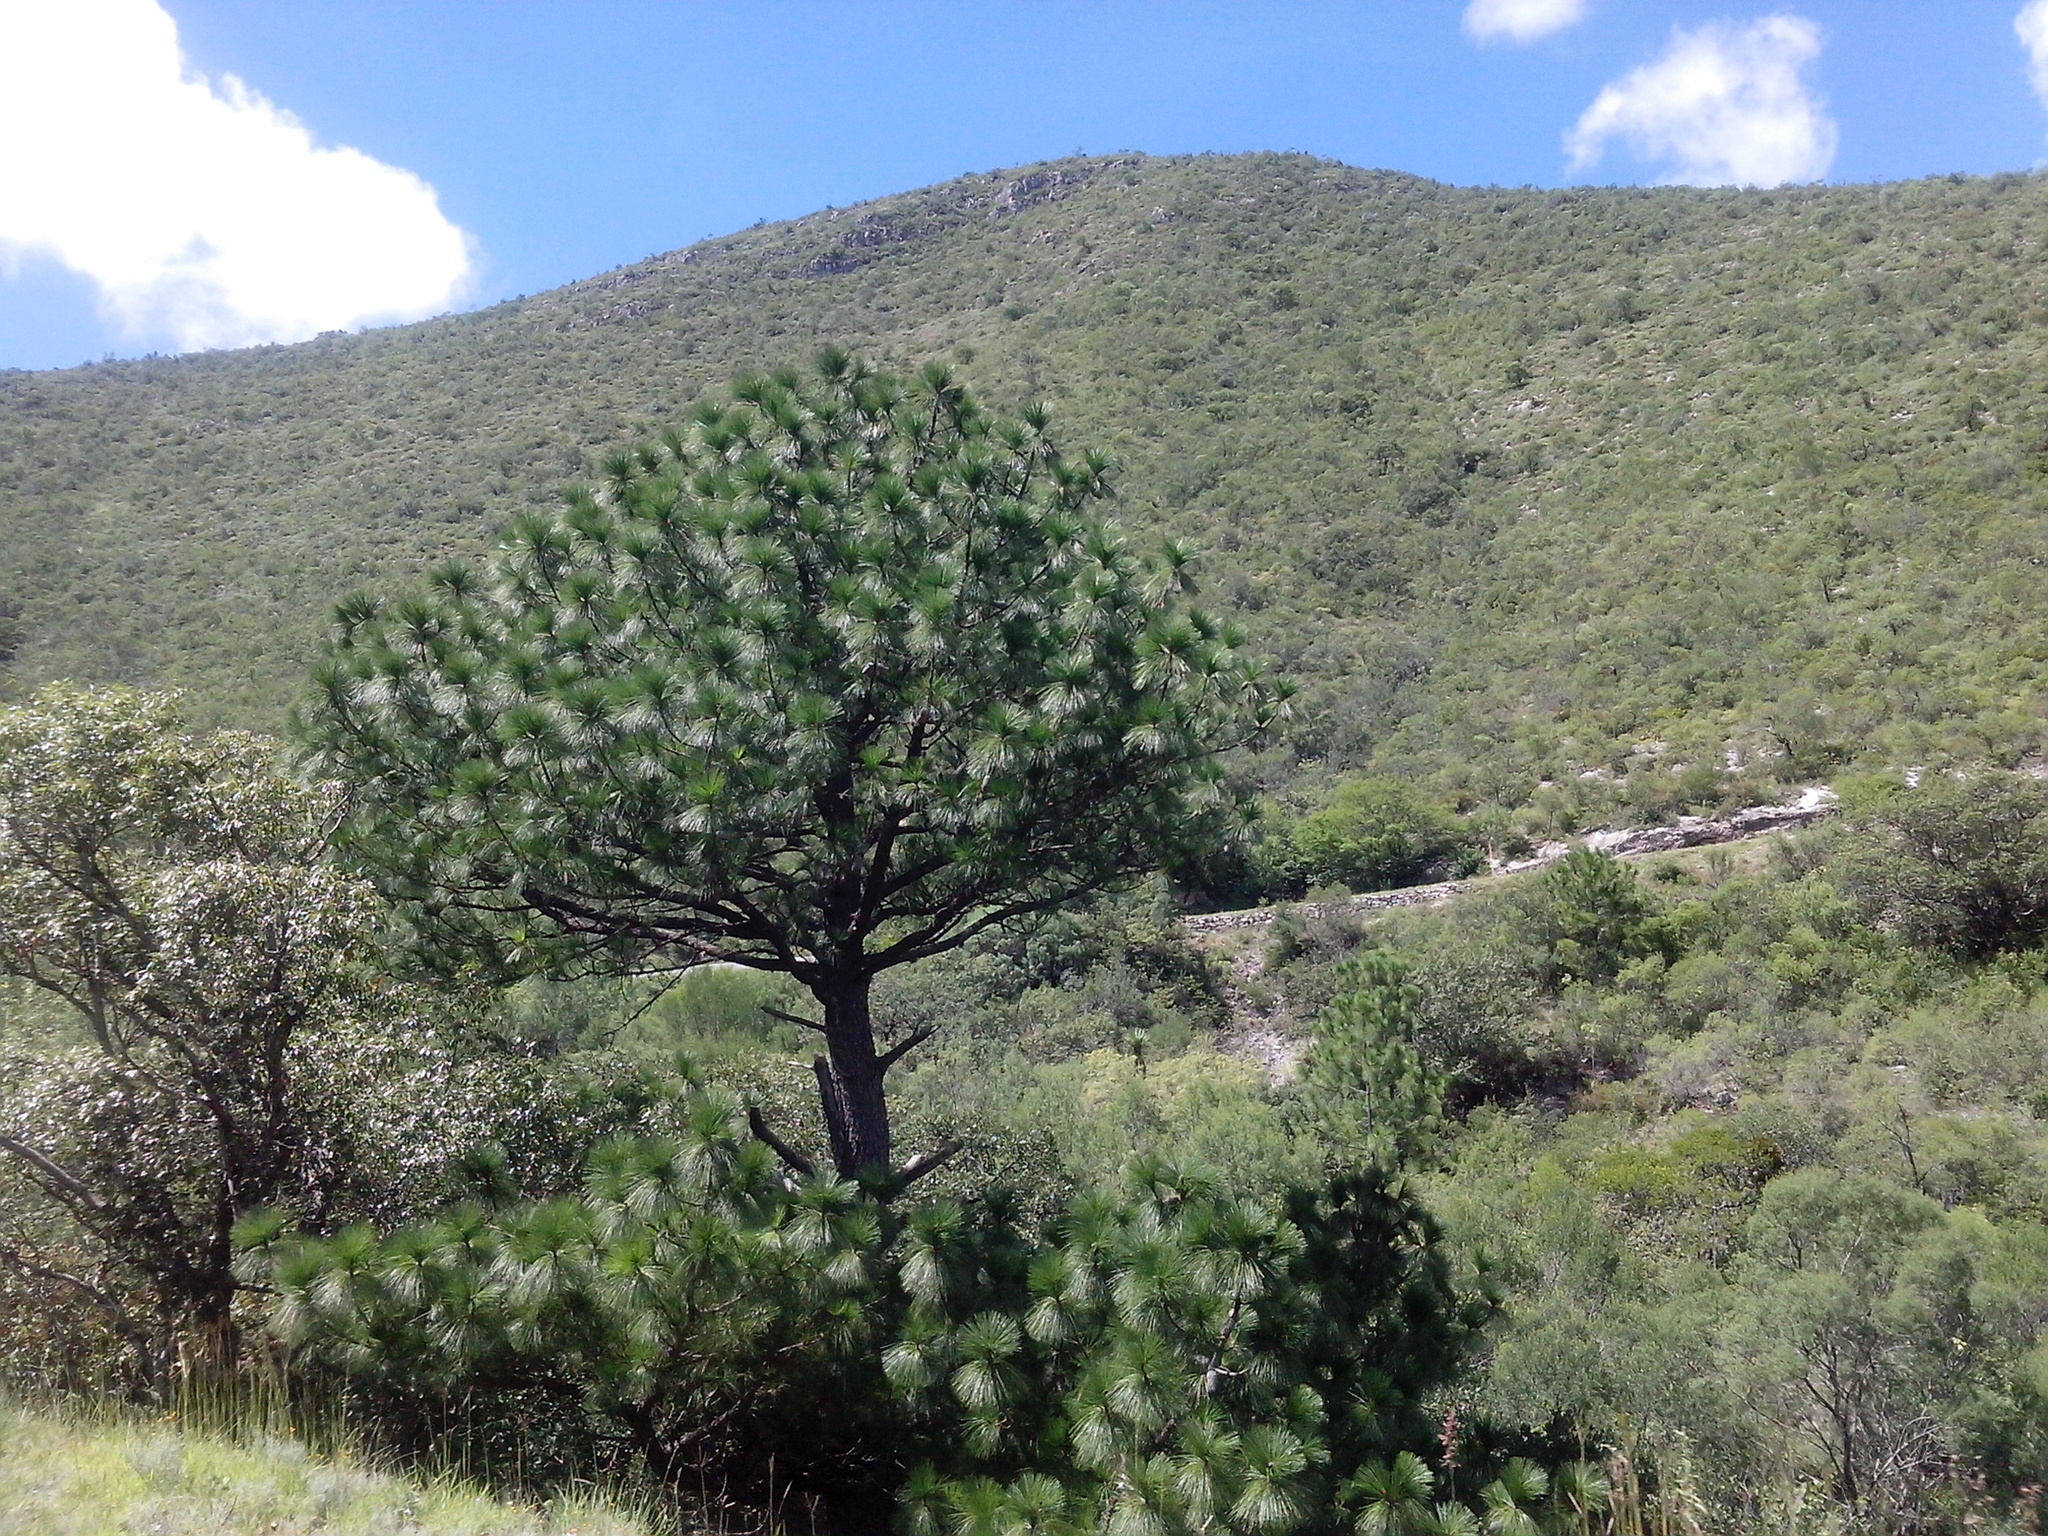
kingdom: Plantae
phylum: Tracheophyta
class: Pinopsida
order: Pinales
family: Pinaceae
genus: Pinus
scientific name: Pinus arizonica
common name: Arizona pine
